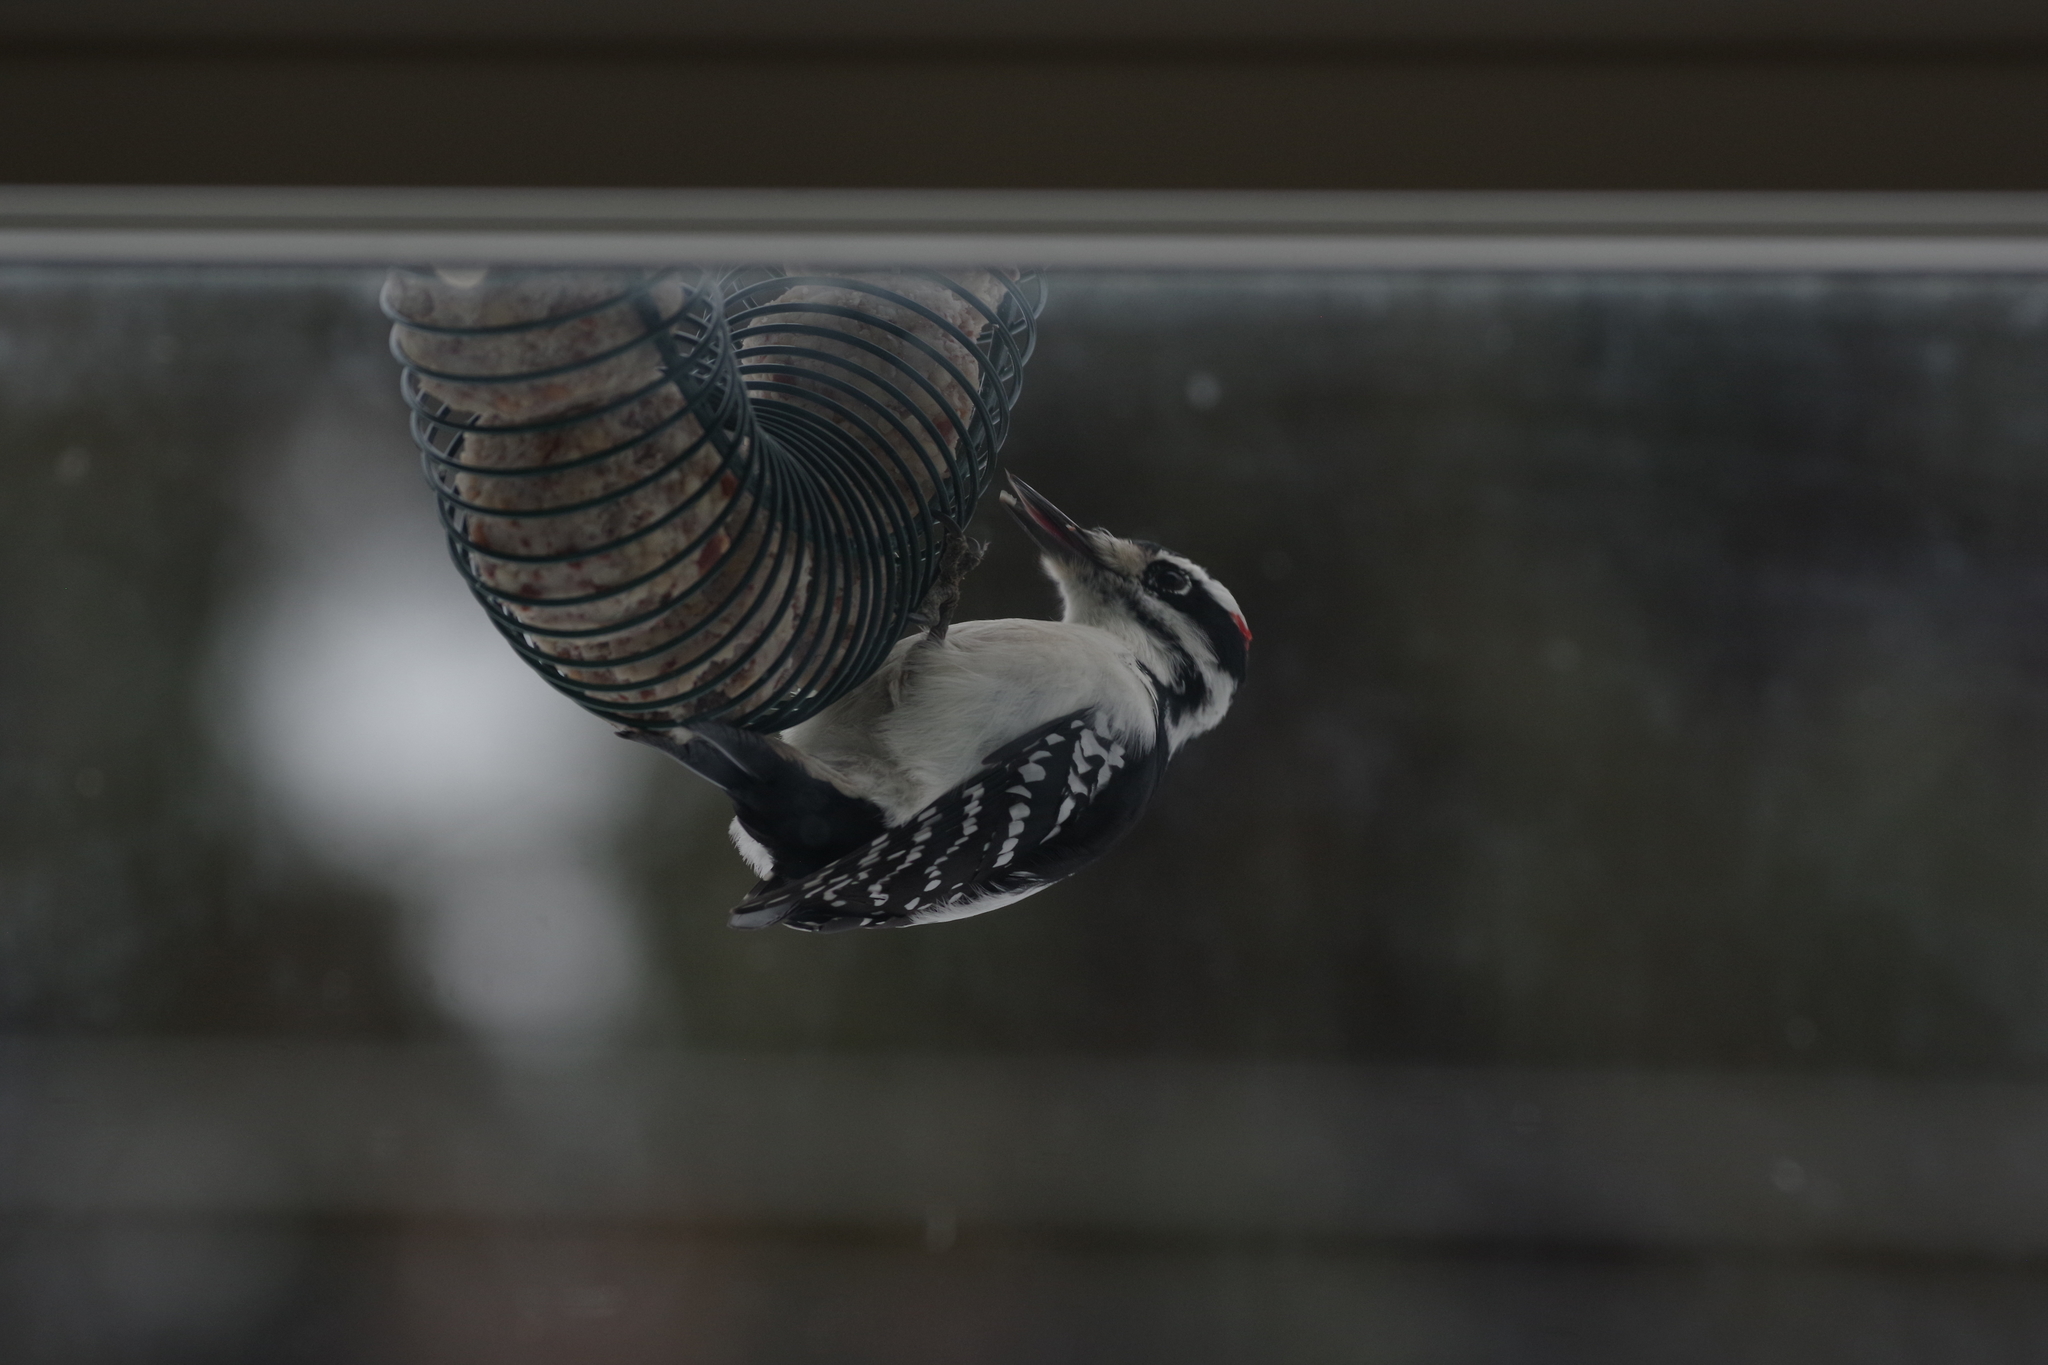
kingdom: Animalia
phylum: Chordata
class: Aves
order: Piciformes
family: Picidae
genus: Leuconotopicus
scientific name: Leuconotopicus villosus
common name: Hairy woodpecker
